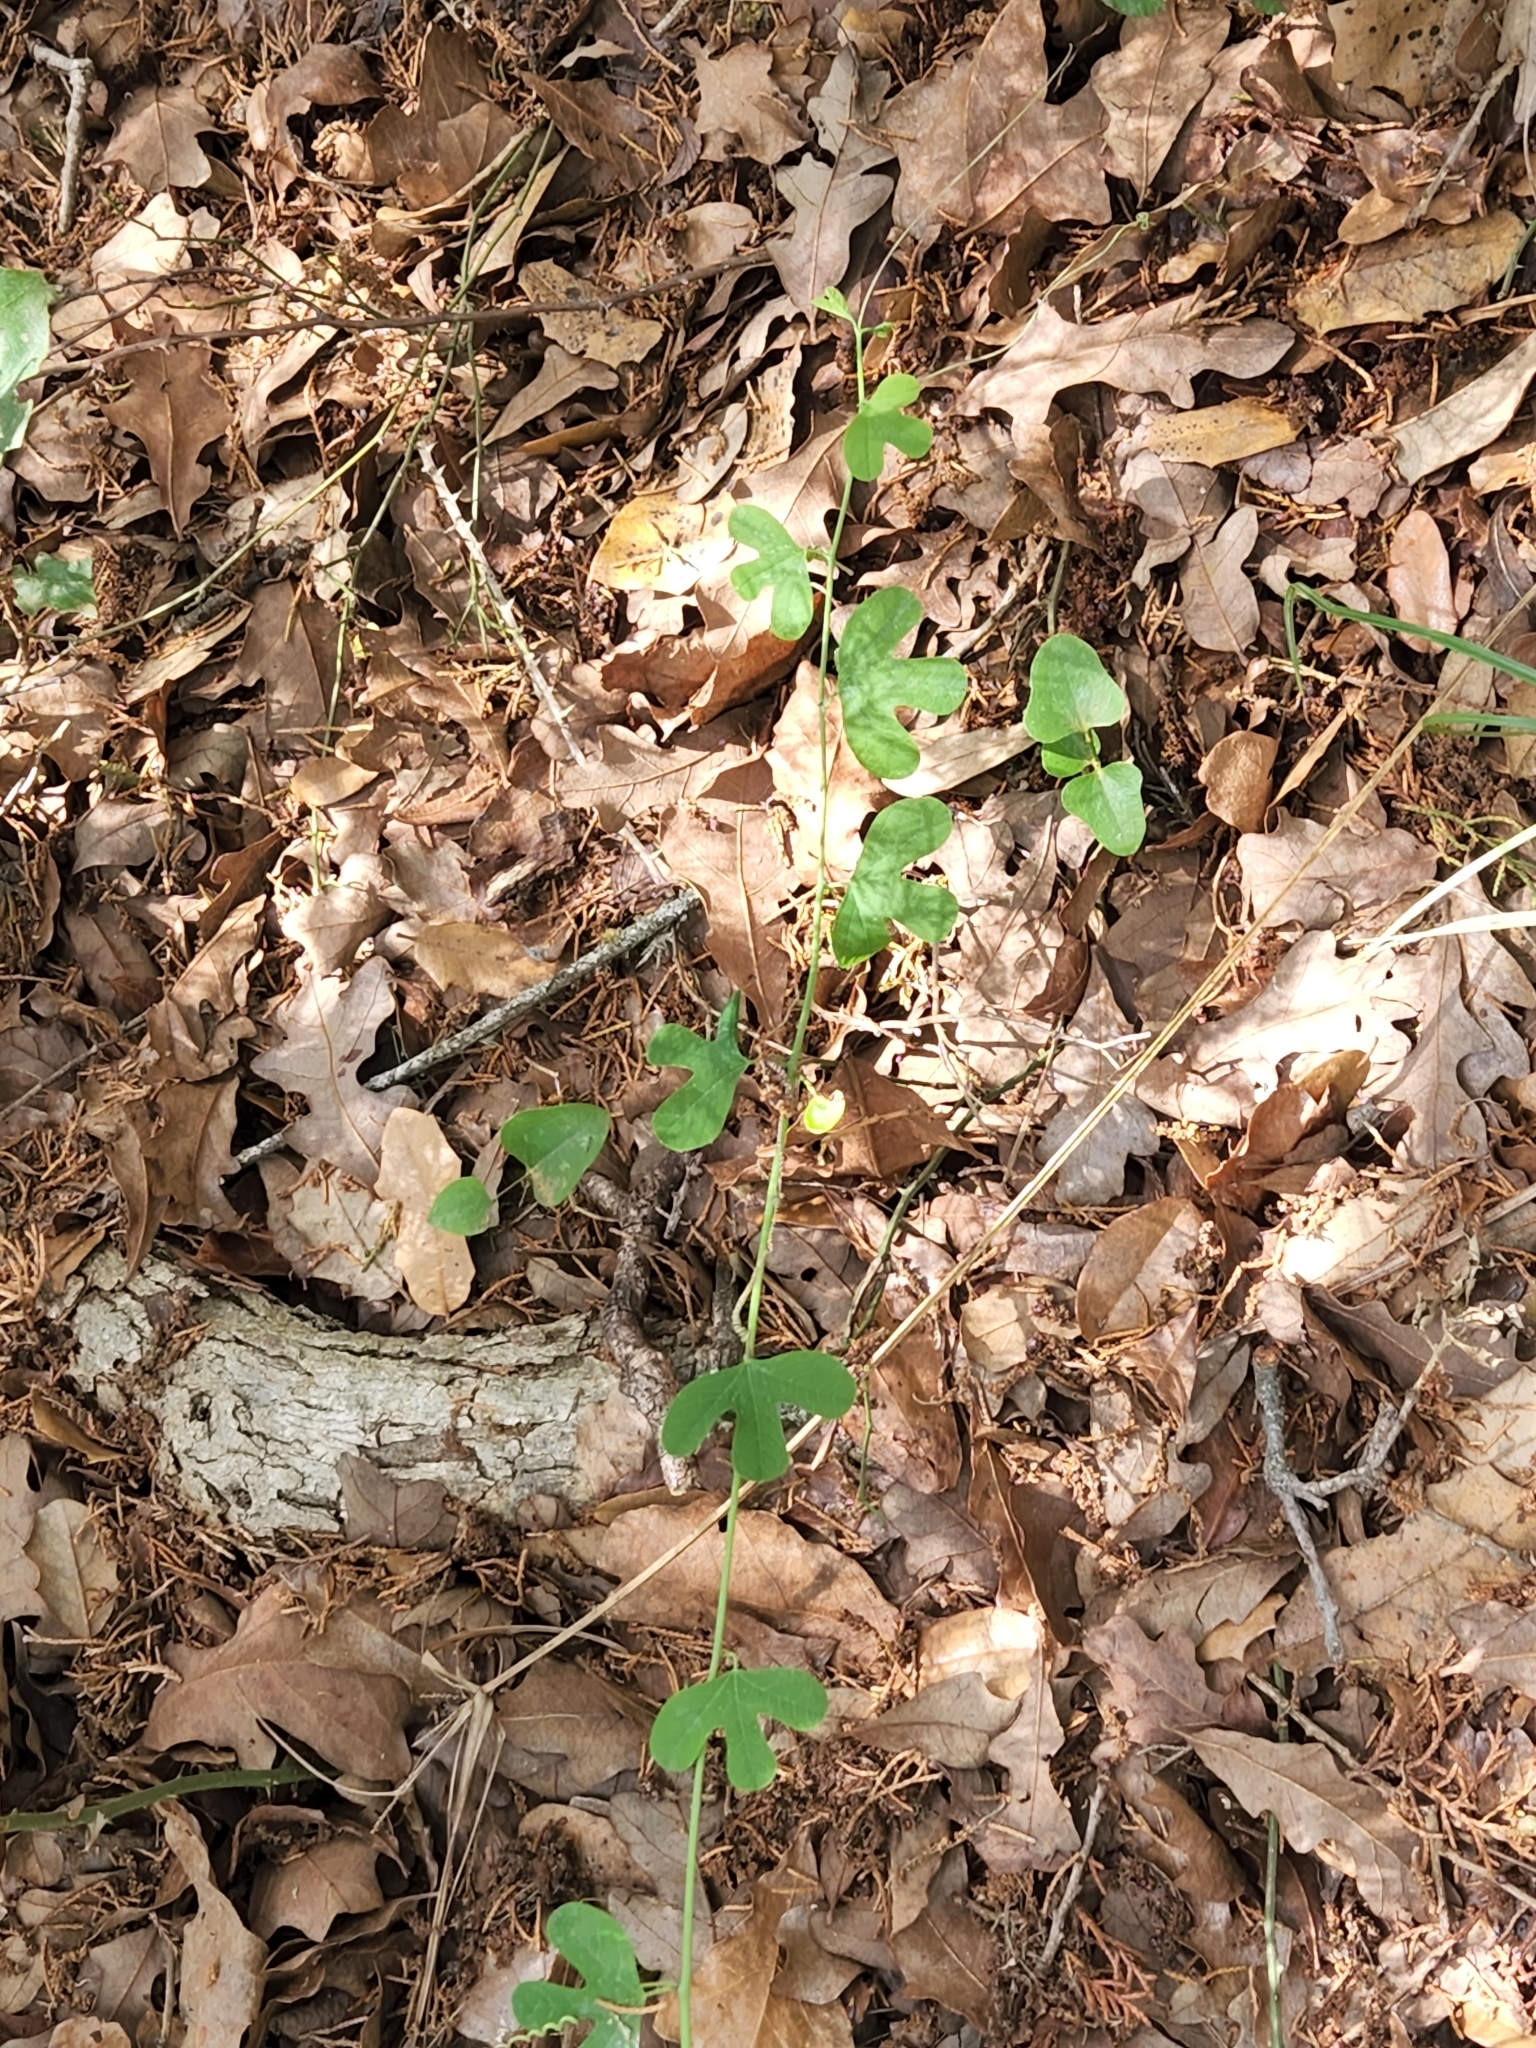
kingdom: Plantae
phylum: Tracheophyta
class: Magnoliopsida
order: Malpighiales
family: Passifloraceae
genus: Passiflora
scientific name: Passiflora affinis
